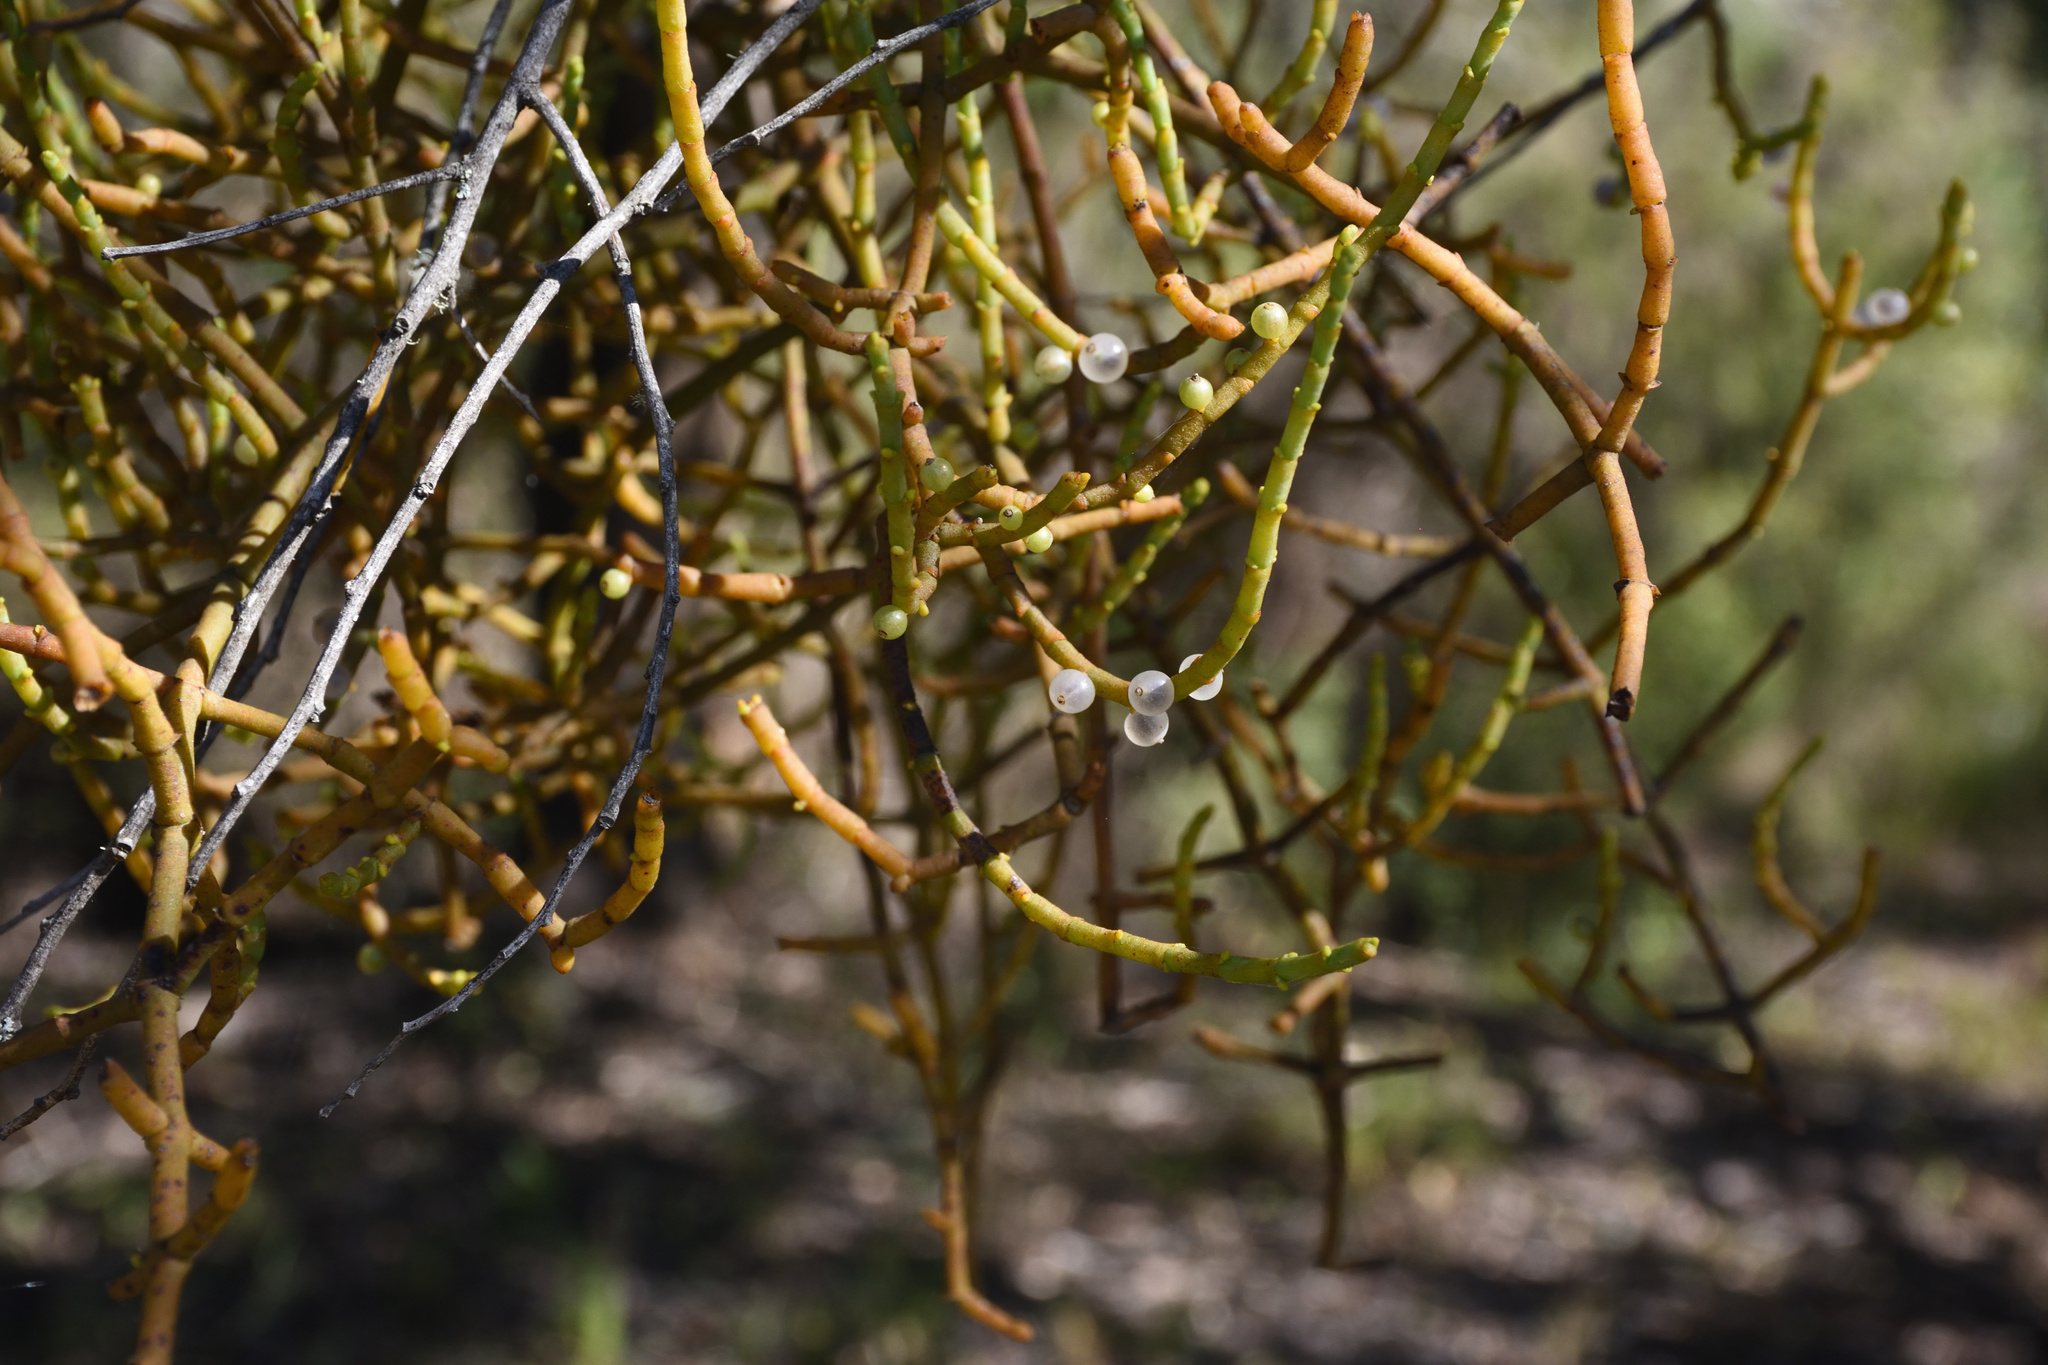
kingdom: Plantae
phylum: Tracheophyta
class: Magnoliopsida
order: Santalales
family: Viscaceae
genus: Viscum
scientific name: Viscum capense
